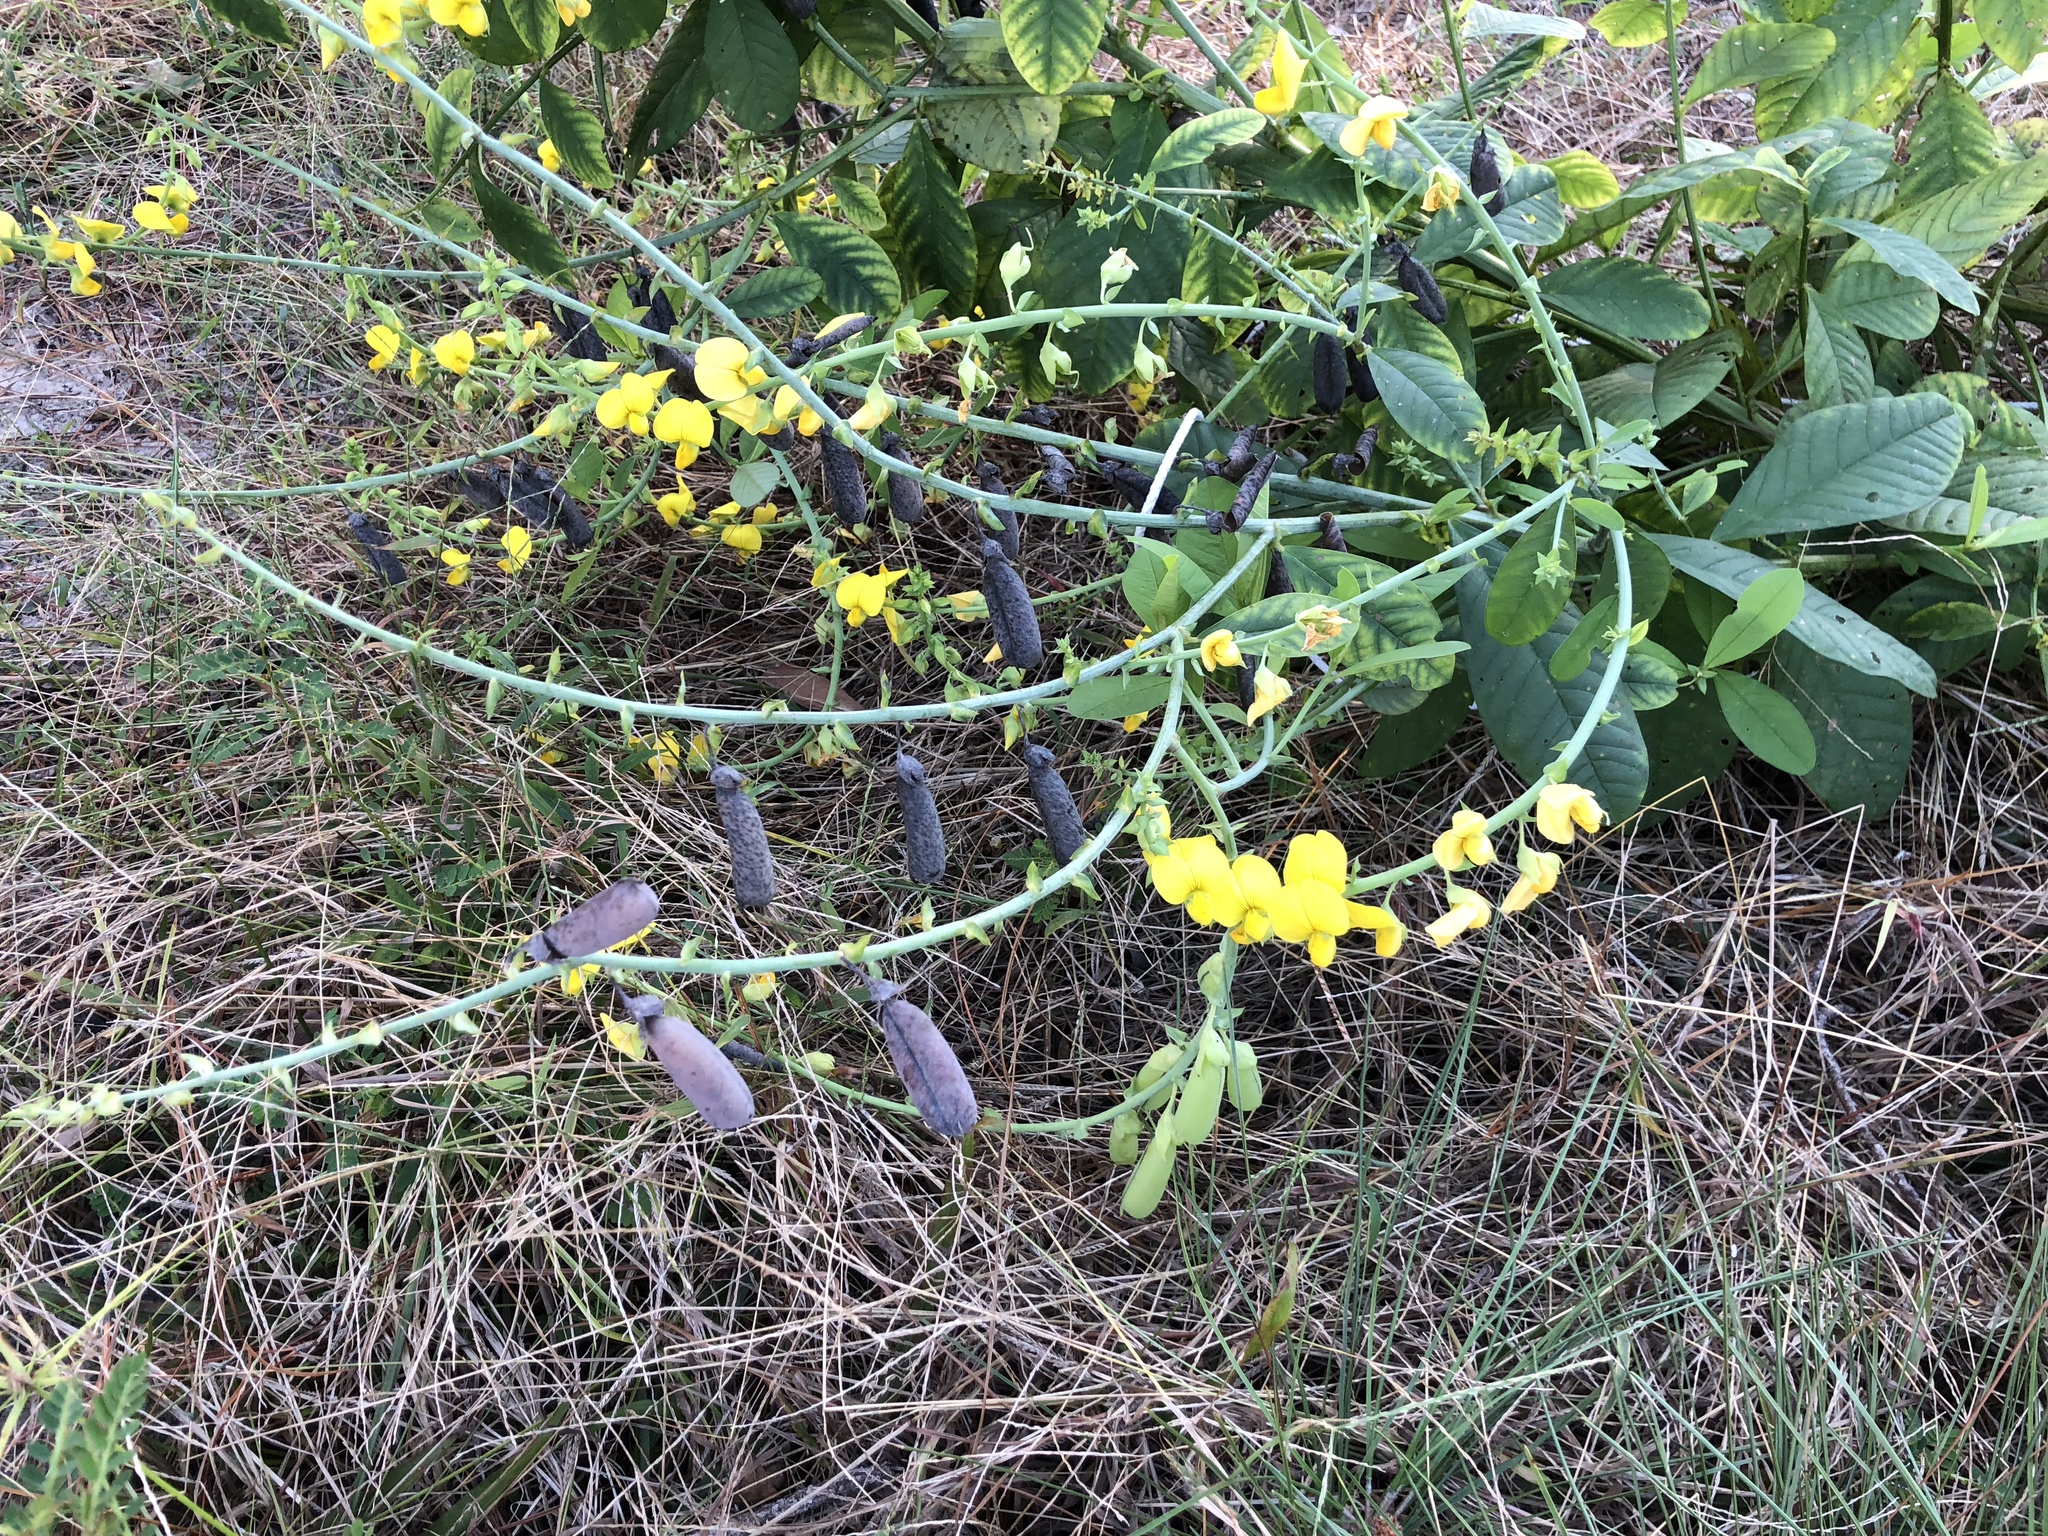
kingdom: Plantae
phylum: Tracheophyta
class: Magnoliopsida
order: Fabales
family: Fabaceae
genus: Crotalaria
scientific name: Crotalaria spectabilis
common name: Showy rattlebox
